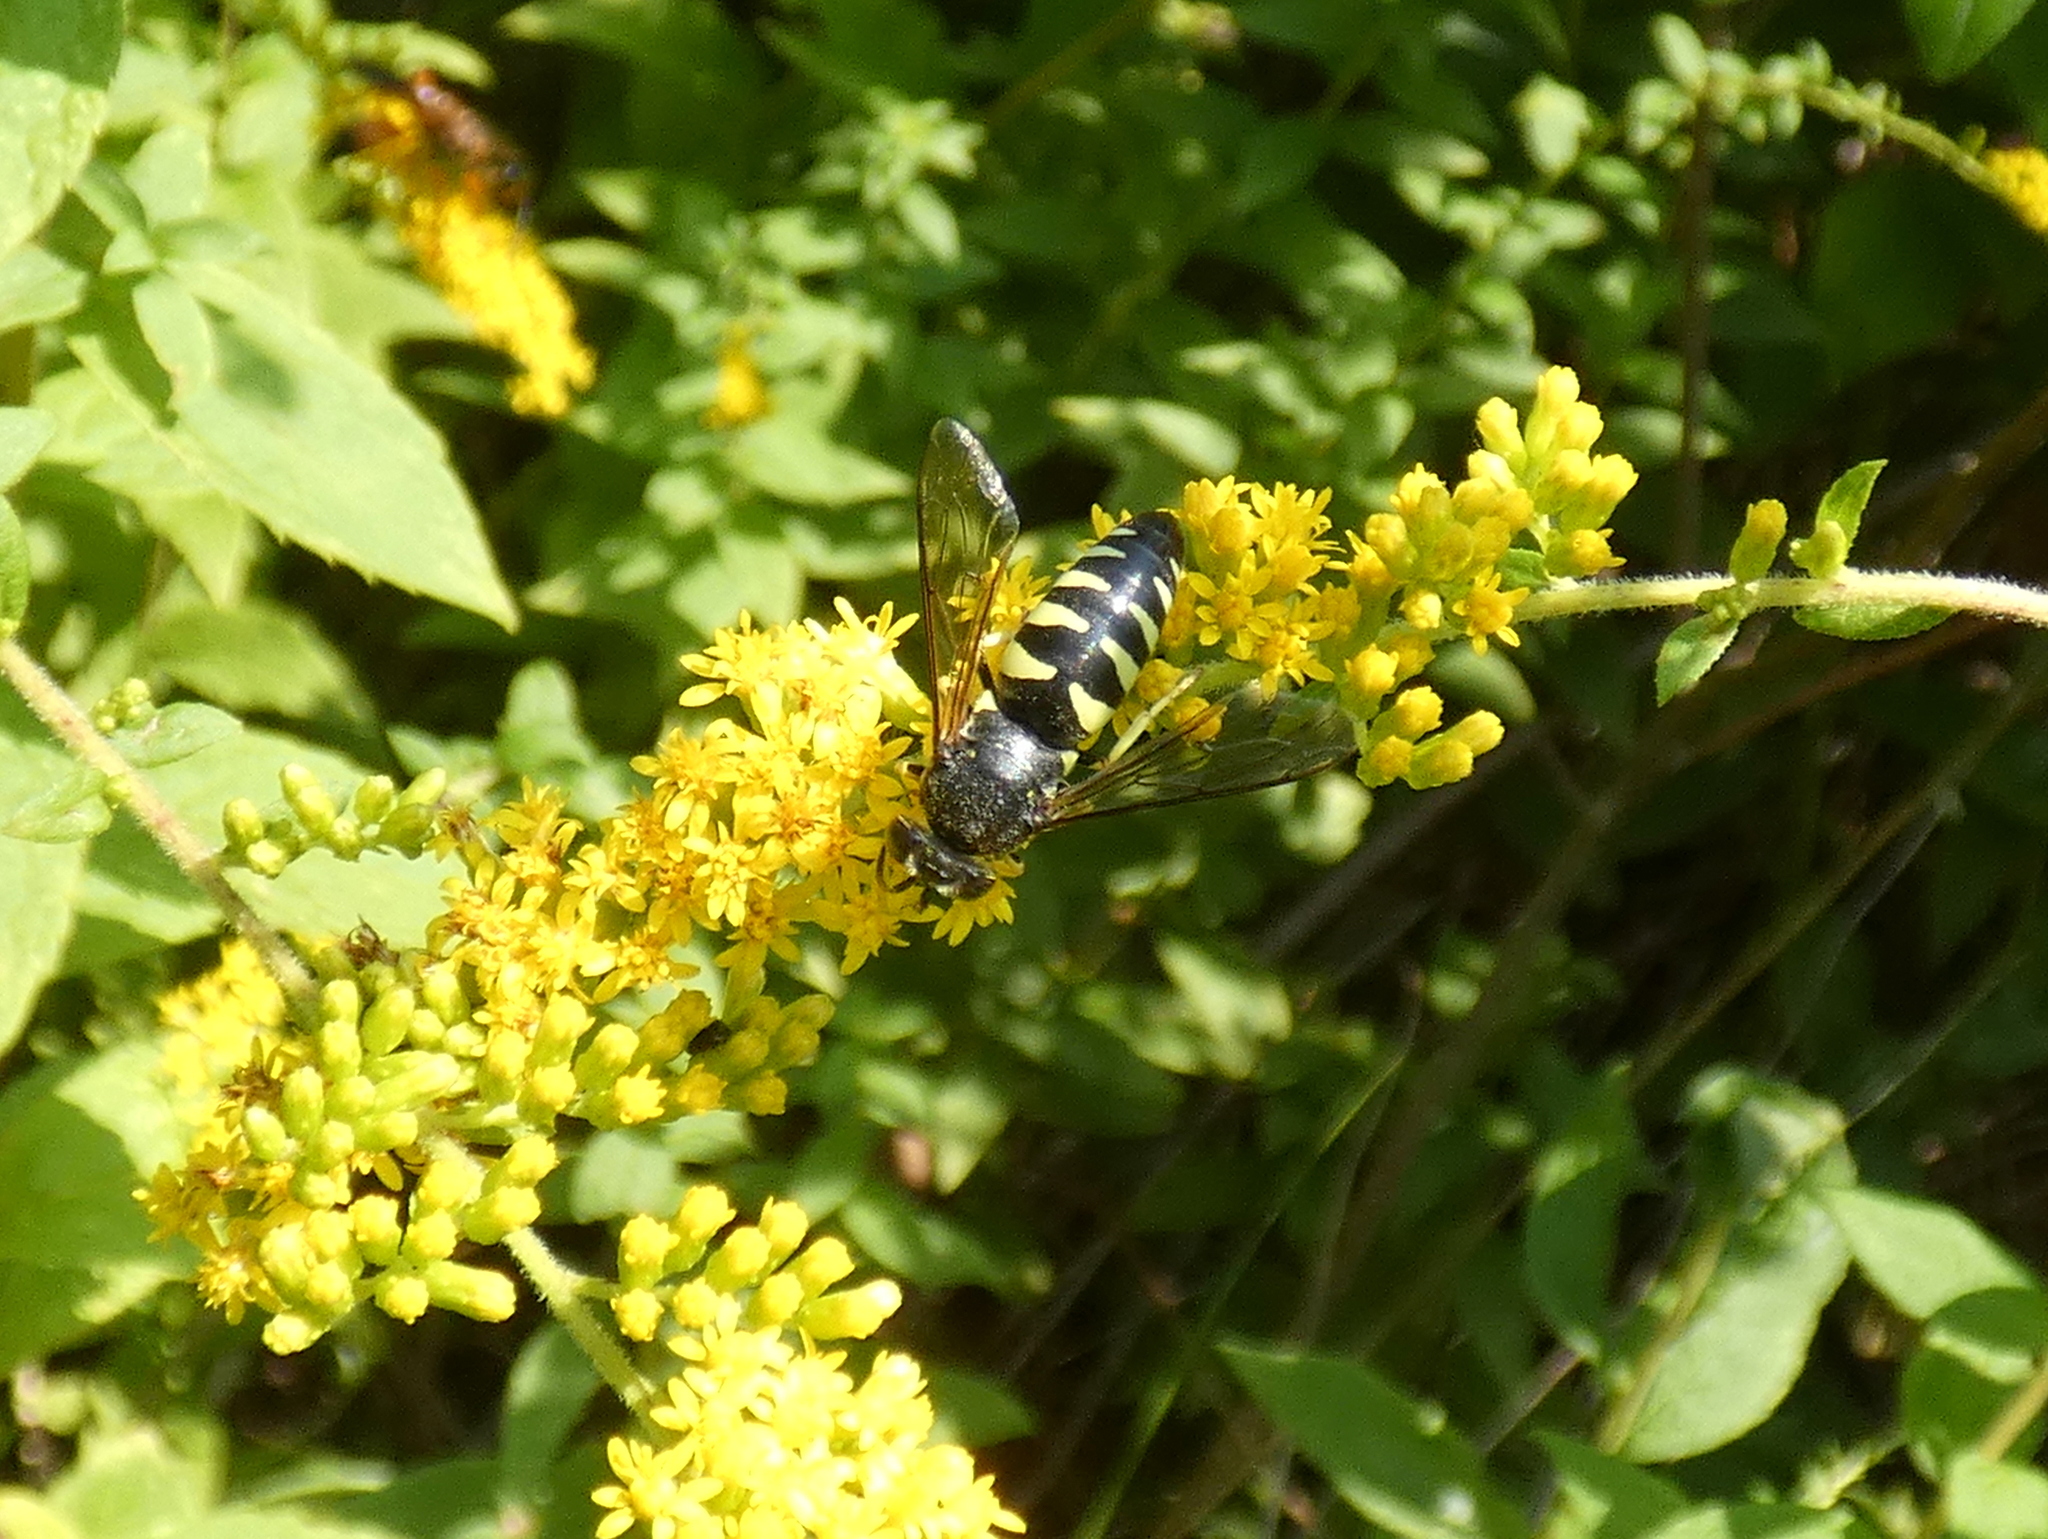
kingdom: Animalia
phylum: Arthropoda
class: Insecta
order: Hymenoptera
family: Crabronidae
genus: Bicyrtes
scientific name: Bicyrtes quadrifasciatus
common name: Four-banded stink bug hunter wasp
